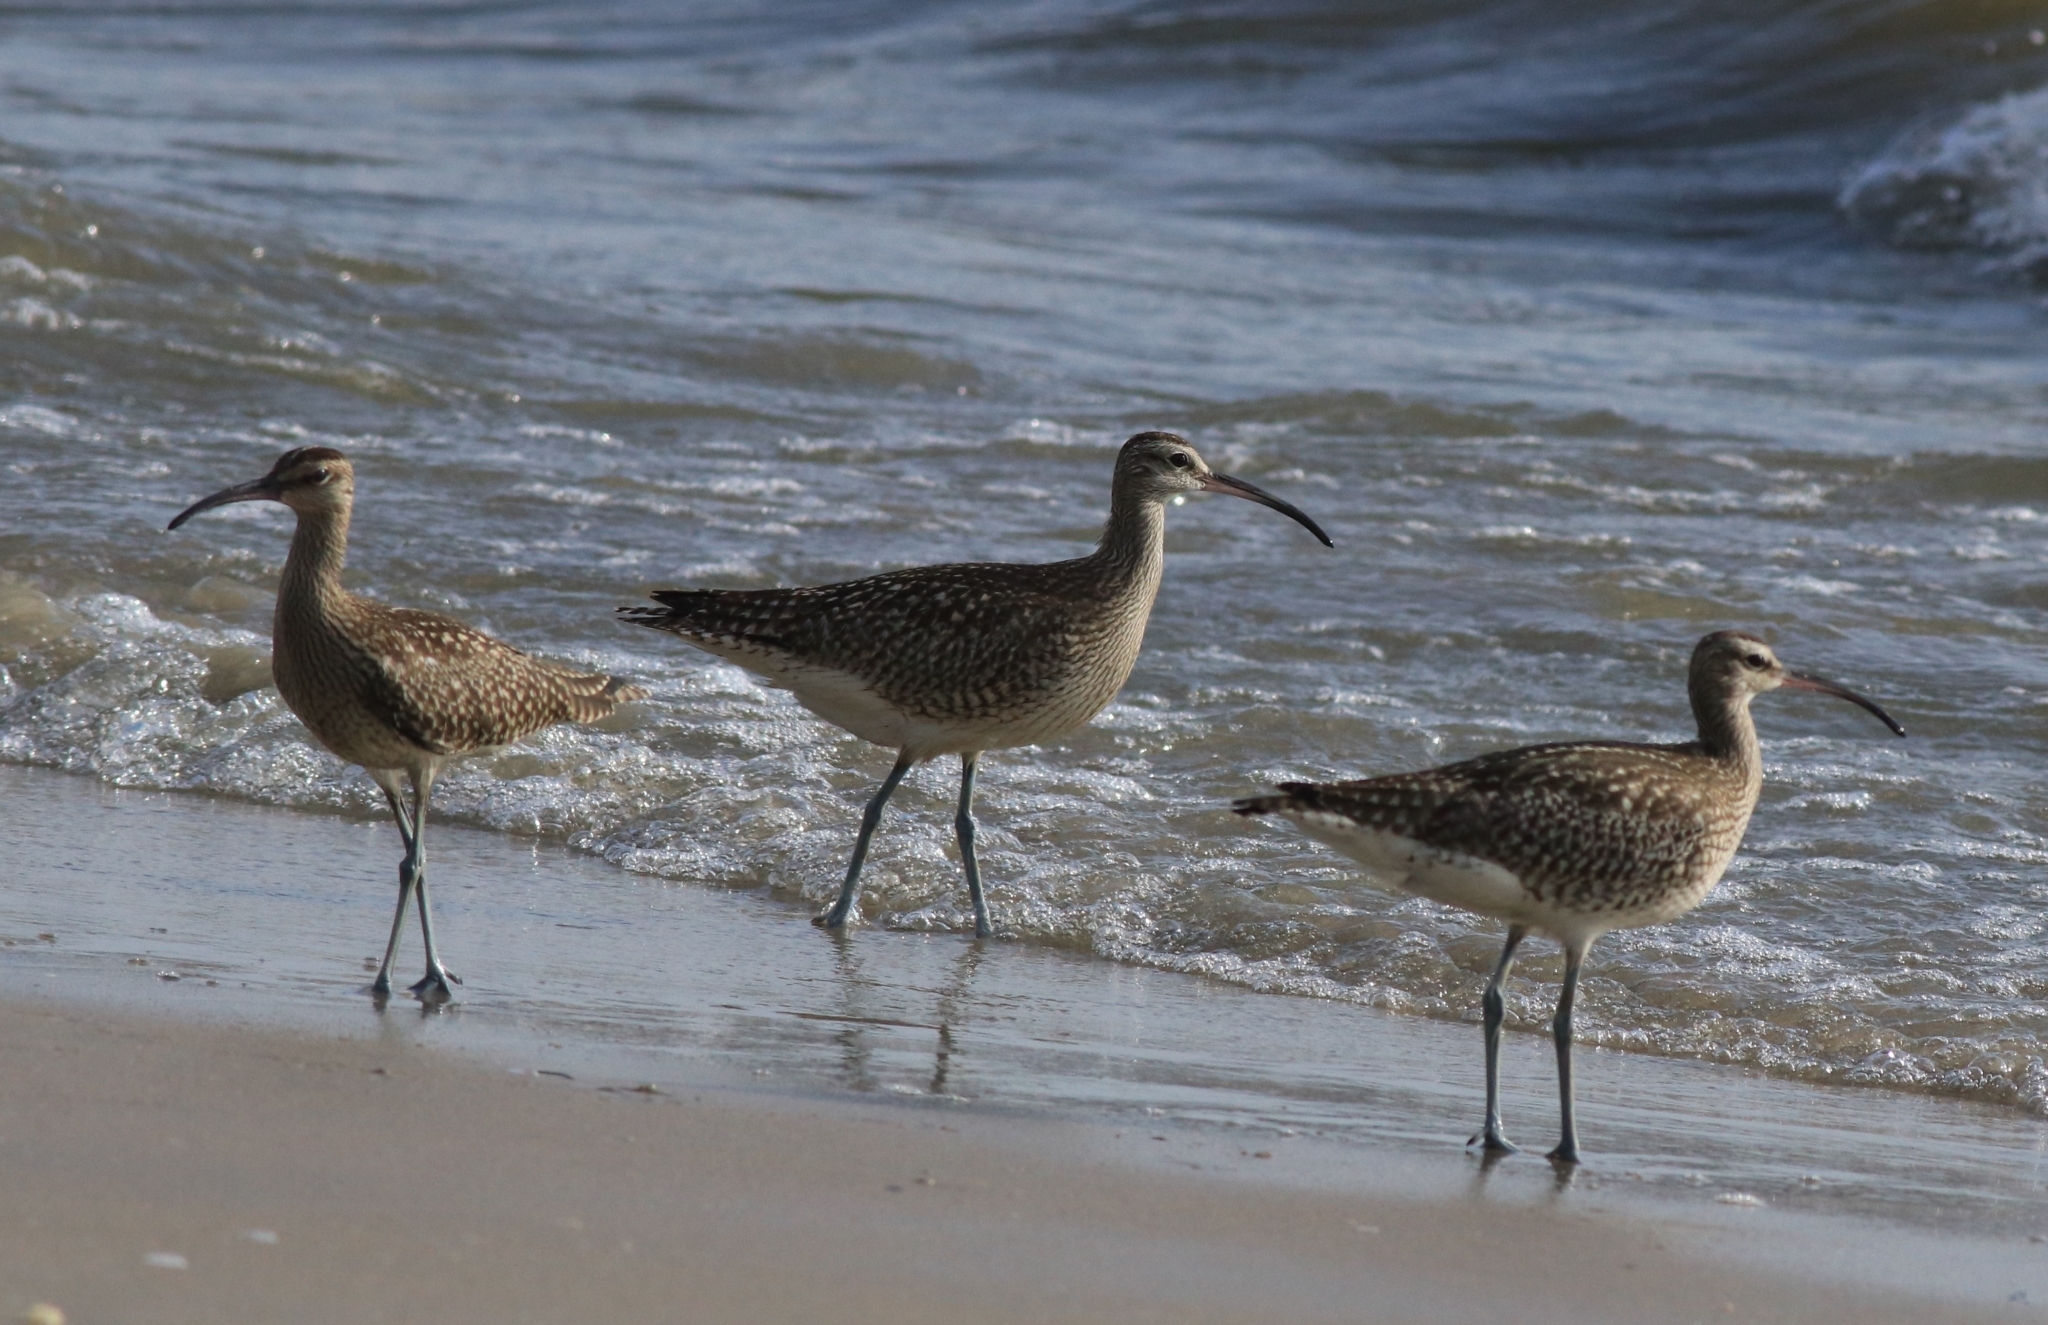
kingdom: Animalia
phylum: Chordata
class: Aves
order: Charadriiformes
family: Scolopacidae
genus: Numenius
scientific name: Numenius phaeopus
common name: Whimbrel
